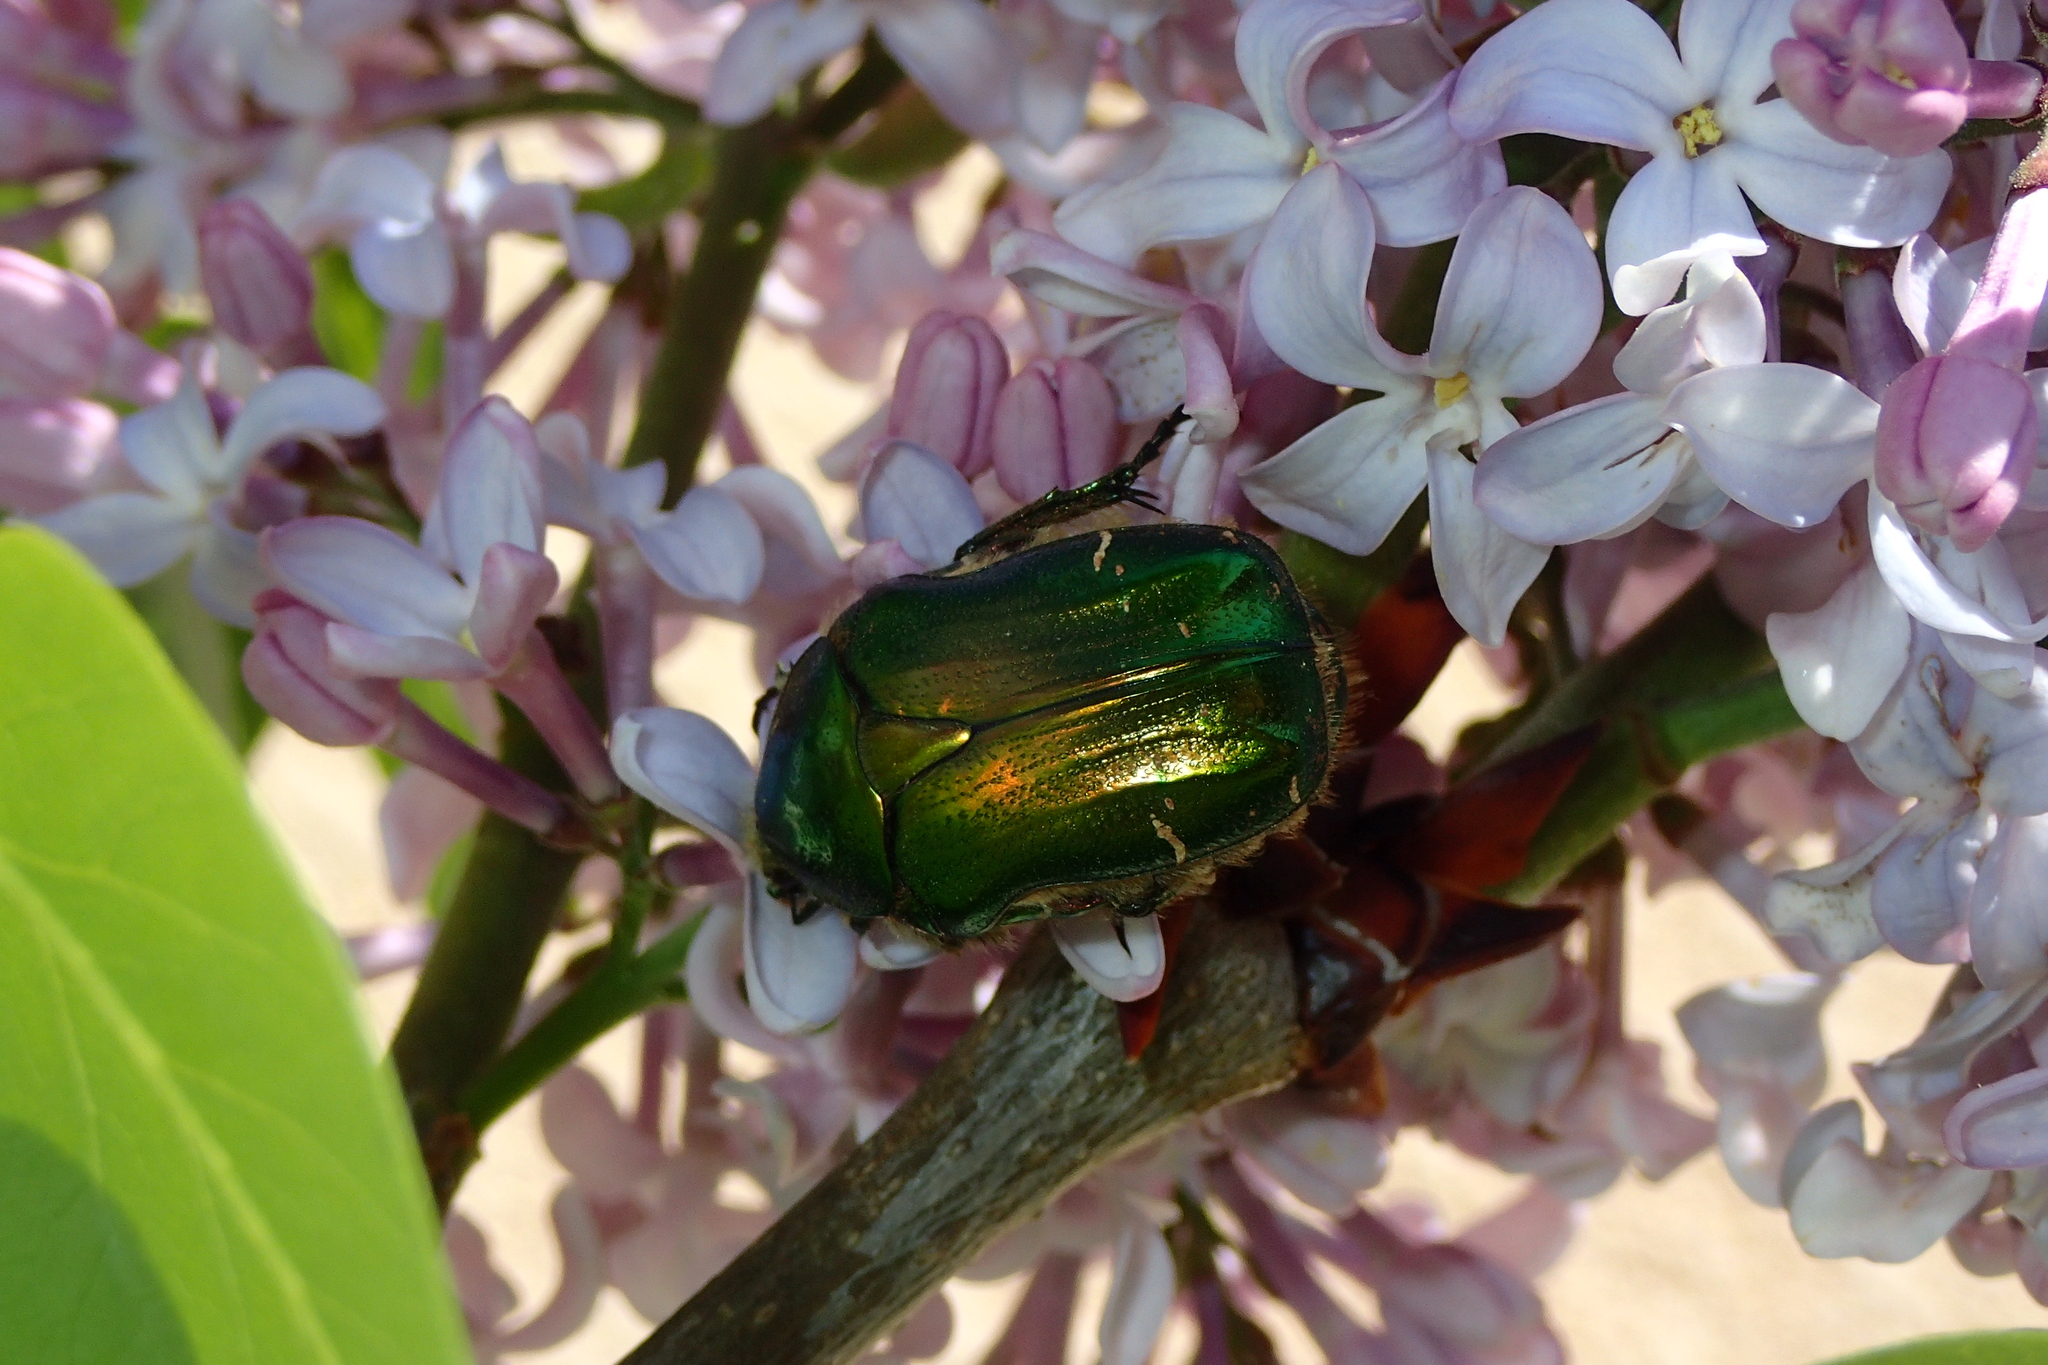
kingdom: Animalia
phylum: Arthropoda
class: Insecta
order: Coleoptera
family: Scarabaeidae
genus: Cetonia
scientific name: Cetonia aurata
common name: Rose chafer
